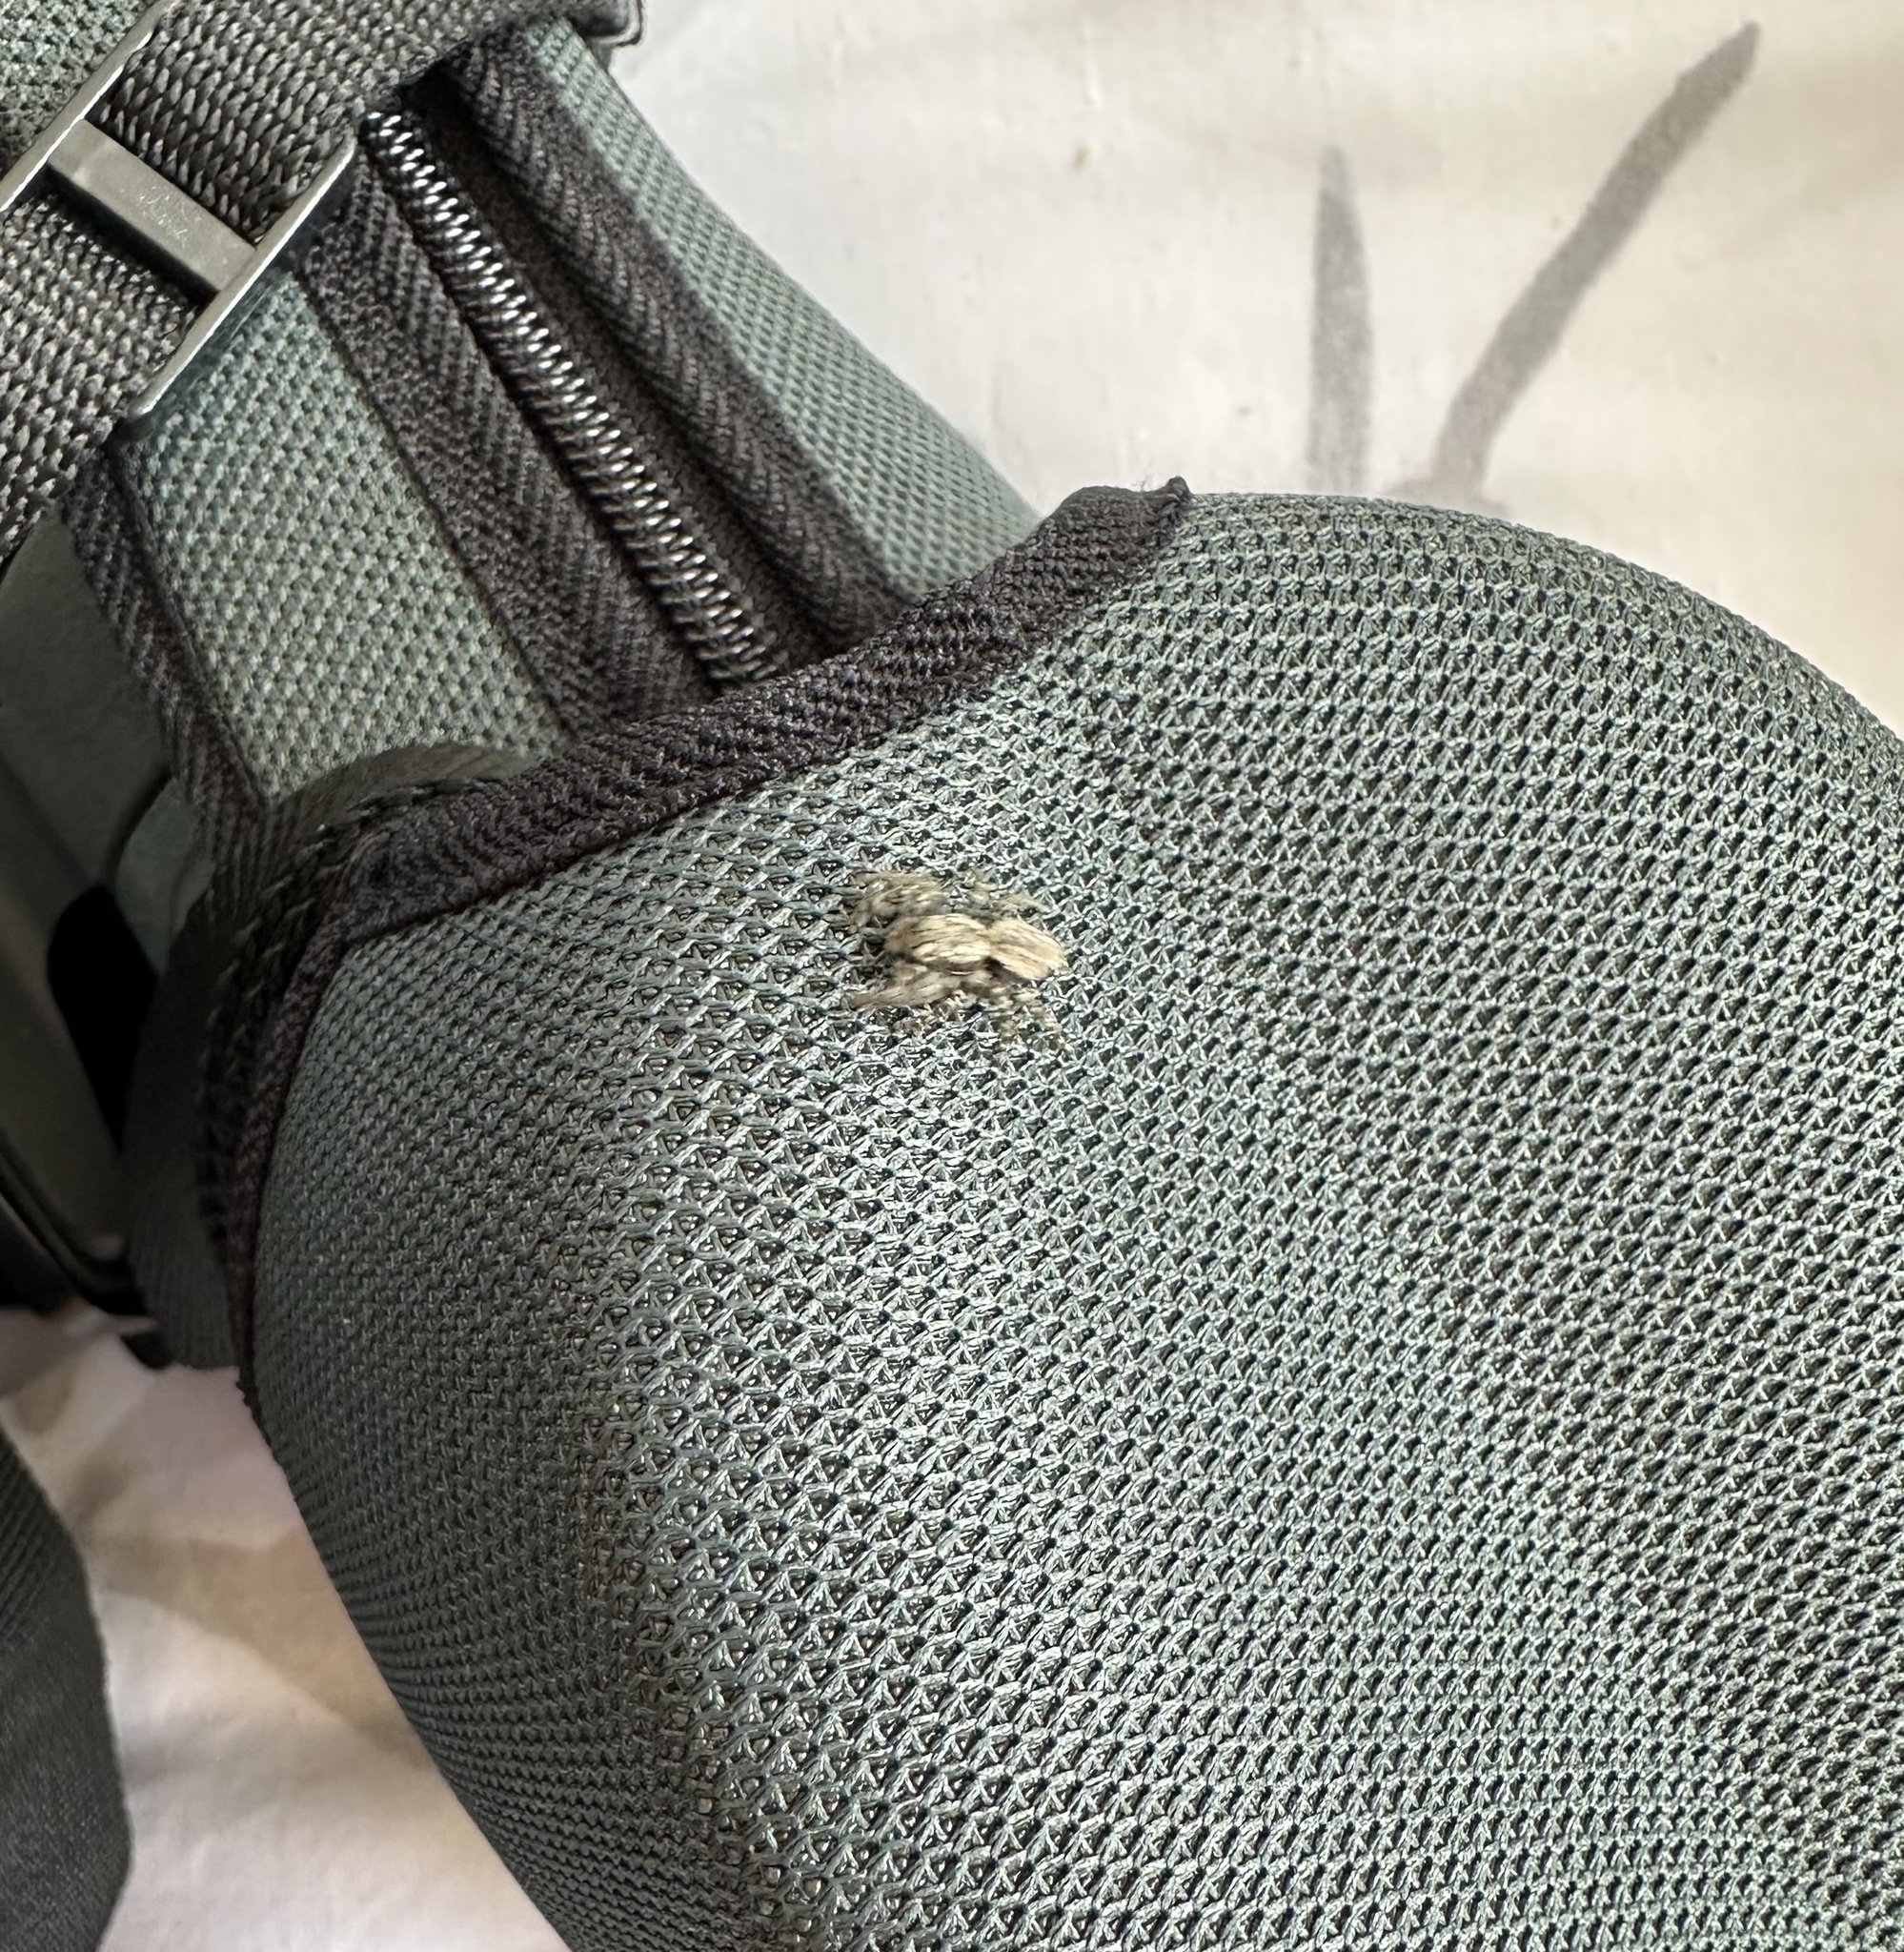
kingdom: Animalia
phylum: Arthropoda
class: Arachnida
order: Araneae
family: Salticidae
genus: Marpissa
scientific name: Marpissa muscosa
